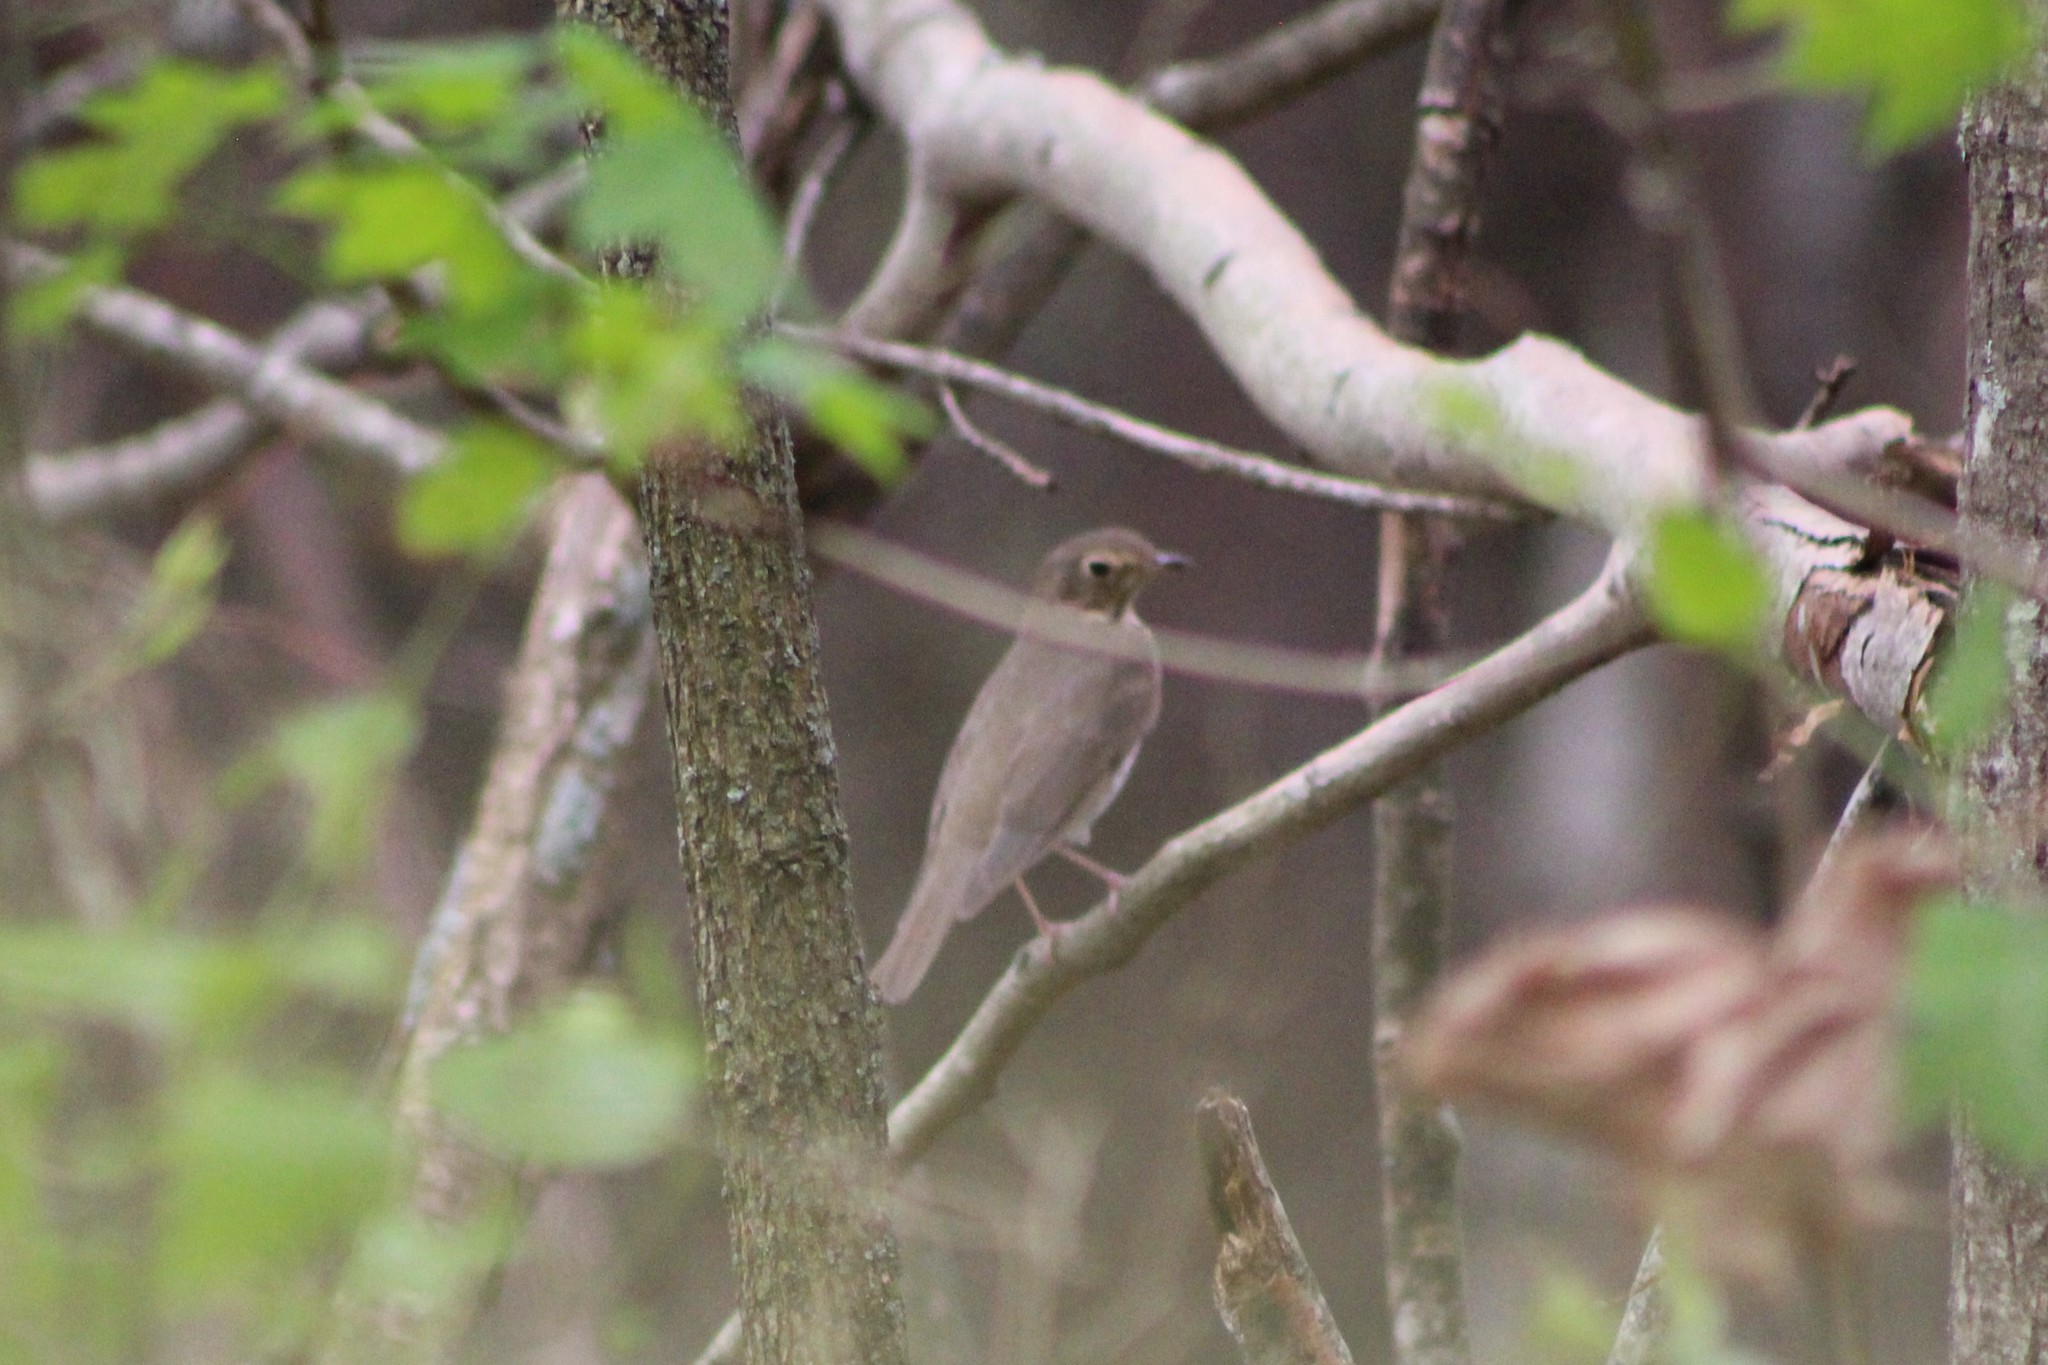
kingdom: Animalia
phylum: Chordata
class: Aves
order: Passeriformes
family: Turdidae
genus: Catharus
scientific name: Catharus ustulatus
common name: Swainson's thrush
